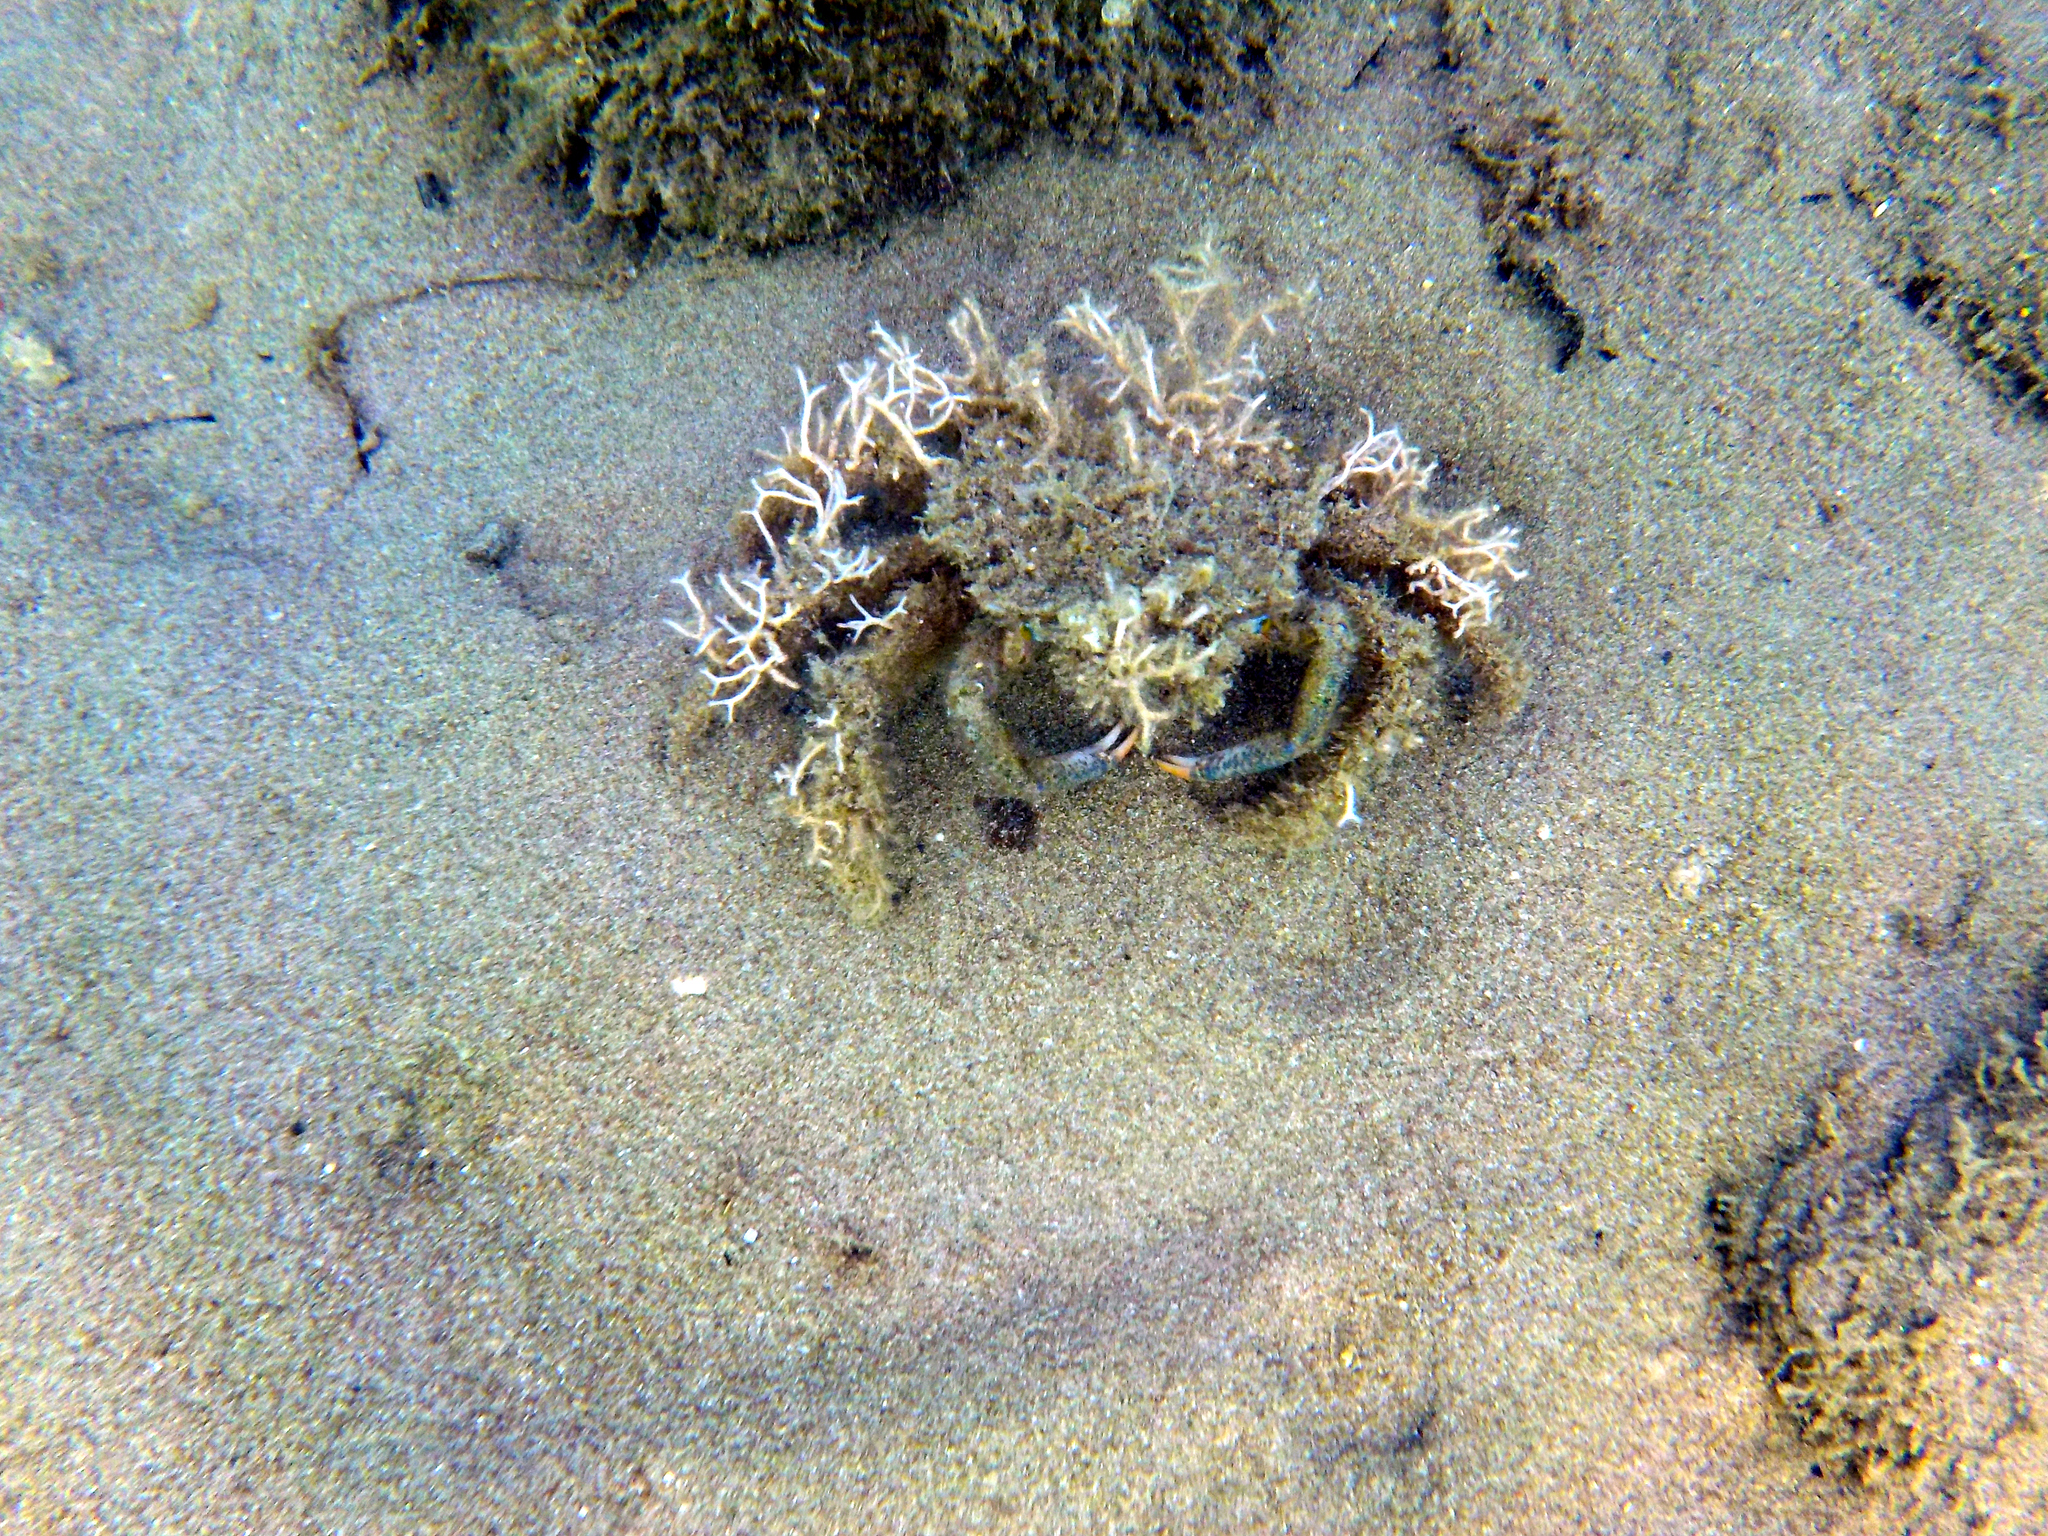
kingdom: Animalia
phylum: Arthropoda
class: Malacostraca
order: Decapoda
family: Majidae
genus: Maja
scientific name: Maja crispata
